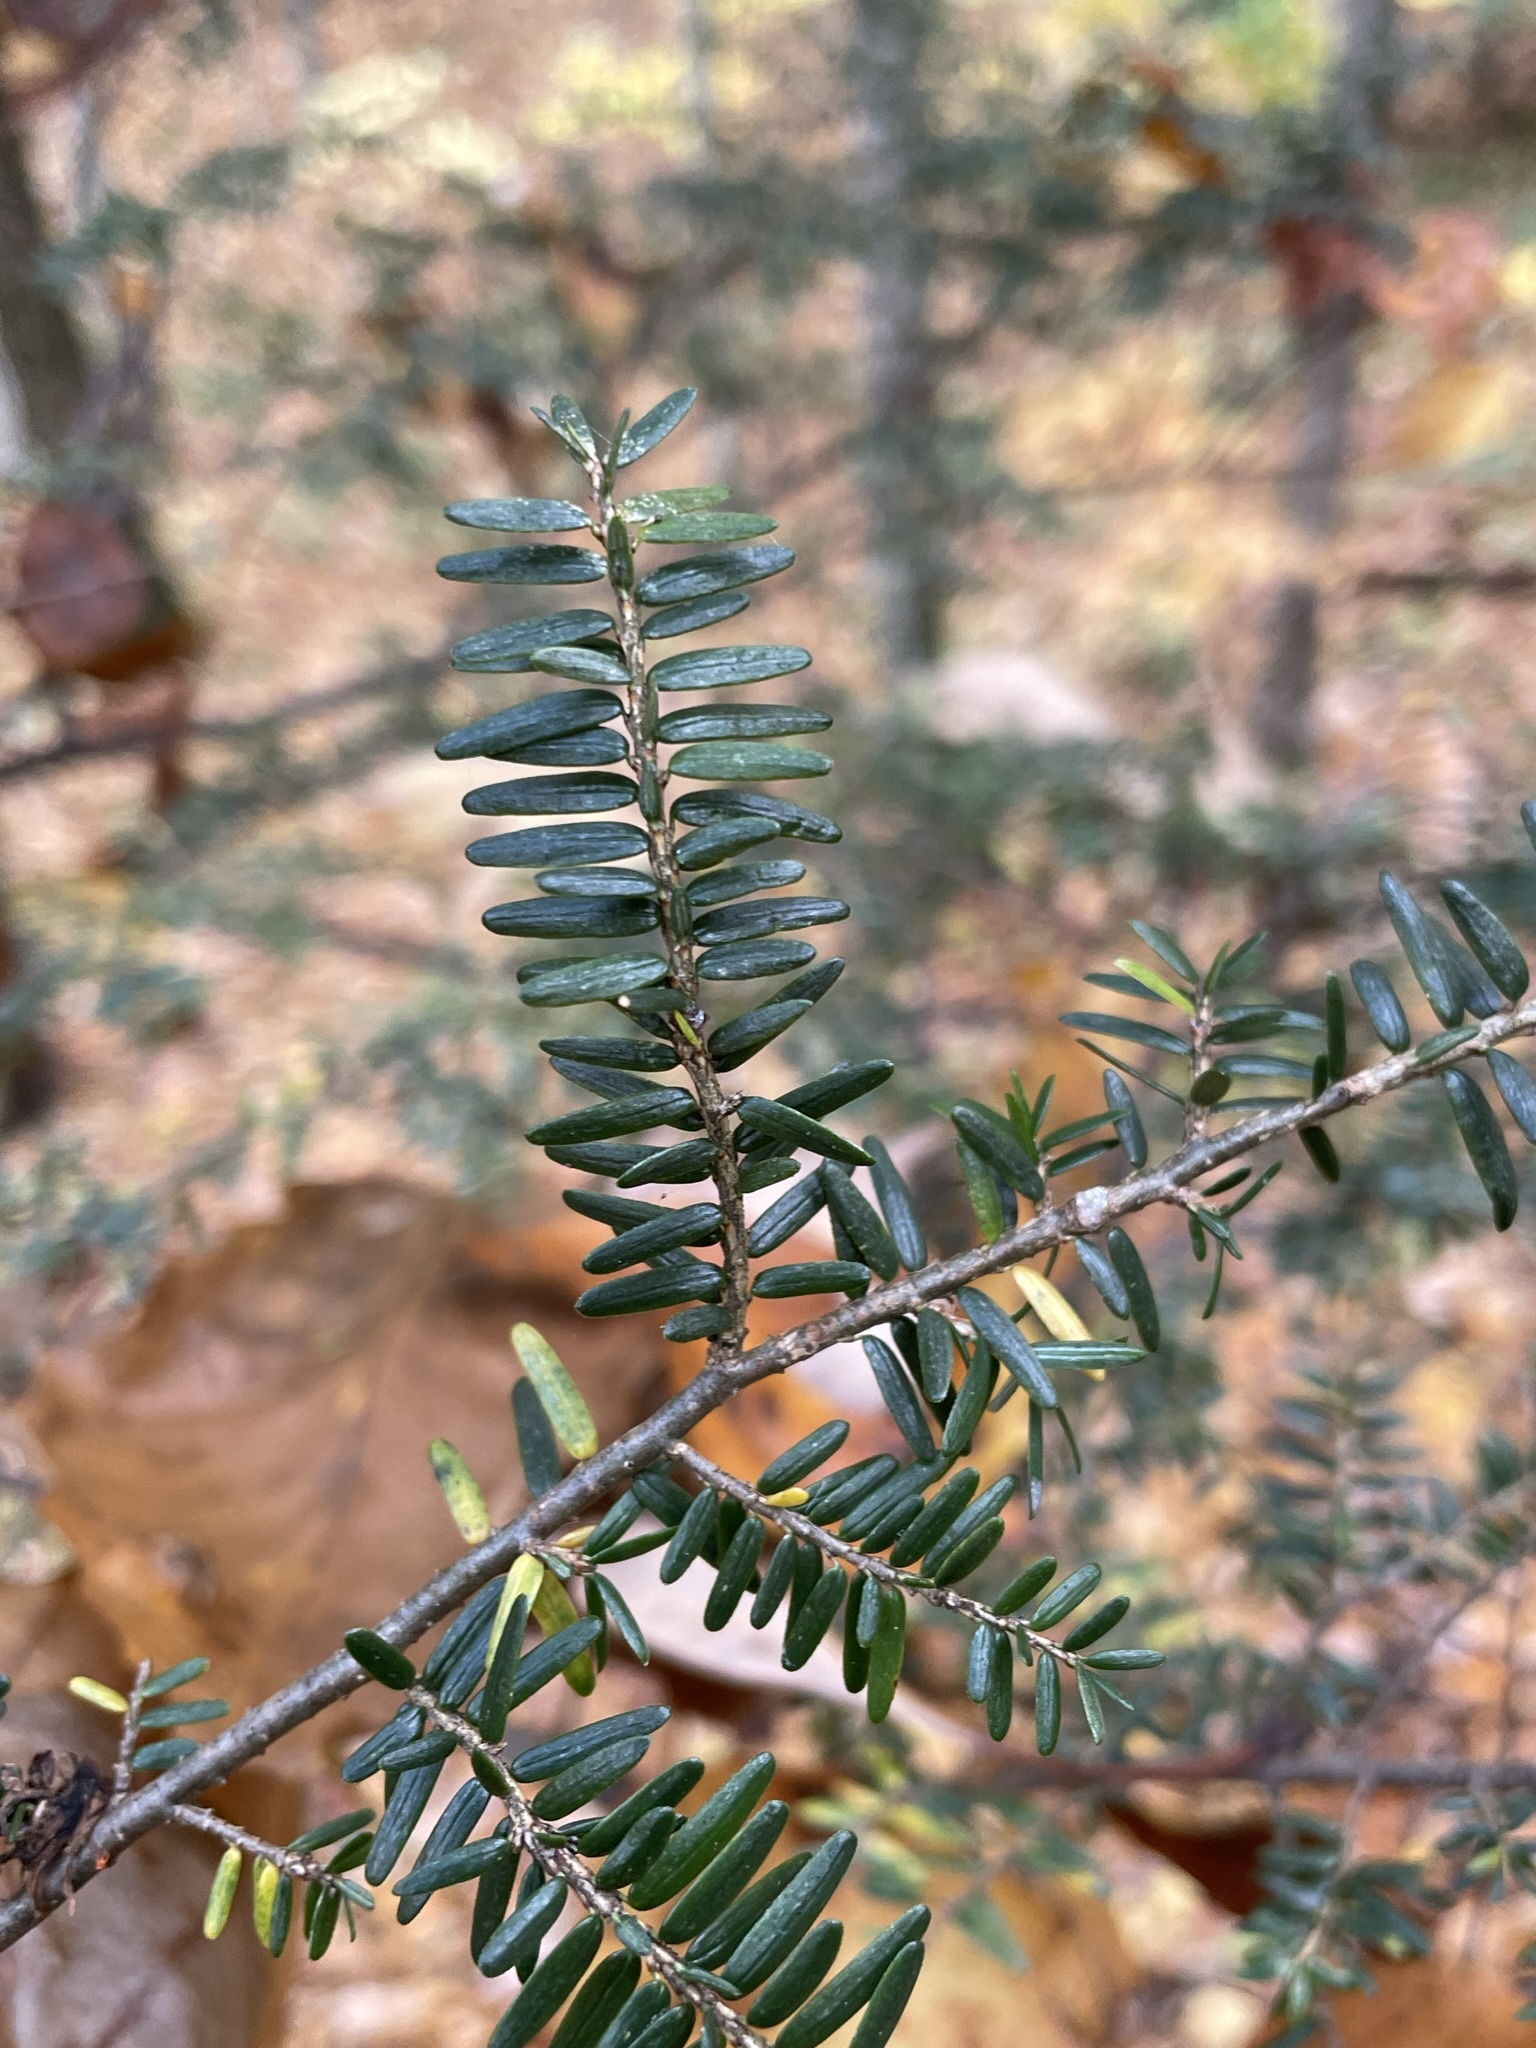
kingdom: Plantae
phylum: Tracheophyta
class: Pinopsida
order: Pinales
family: Pinaceae
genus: Tsuga
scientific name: Tsuga canadensis
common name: Eastern hemlock
